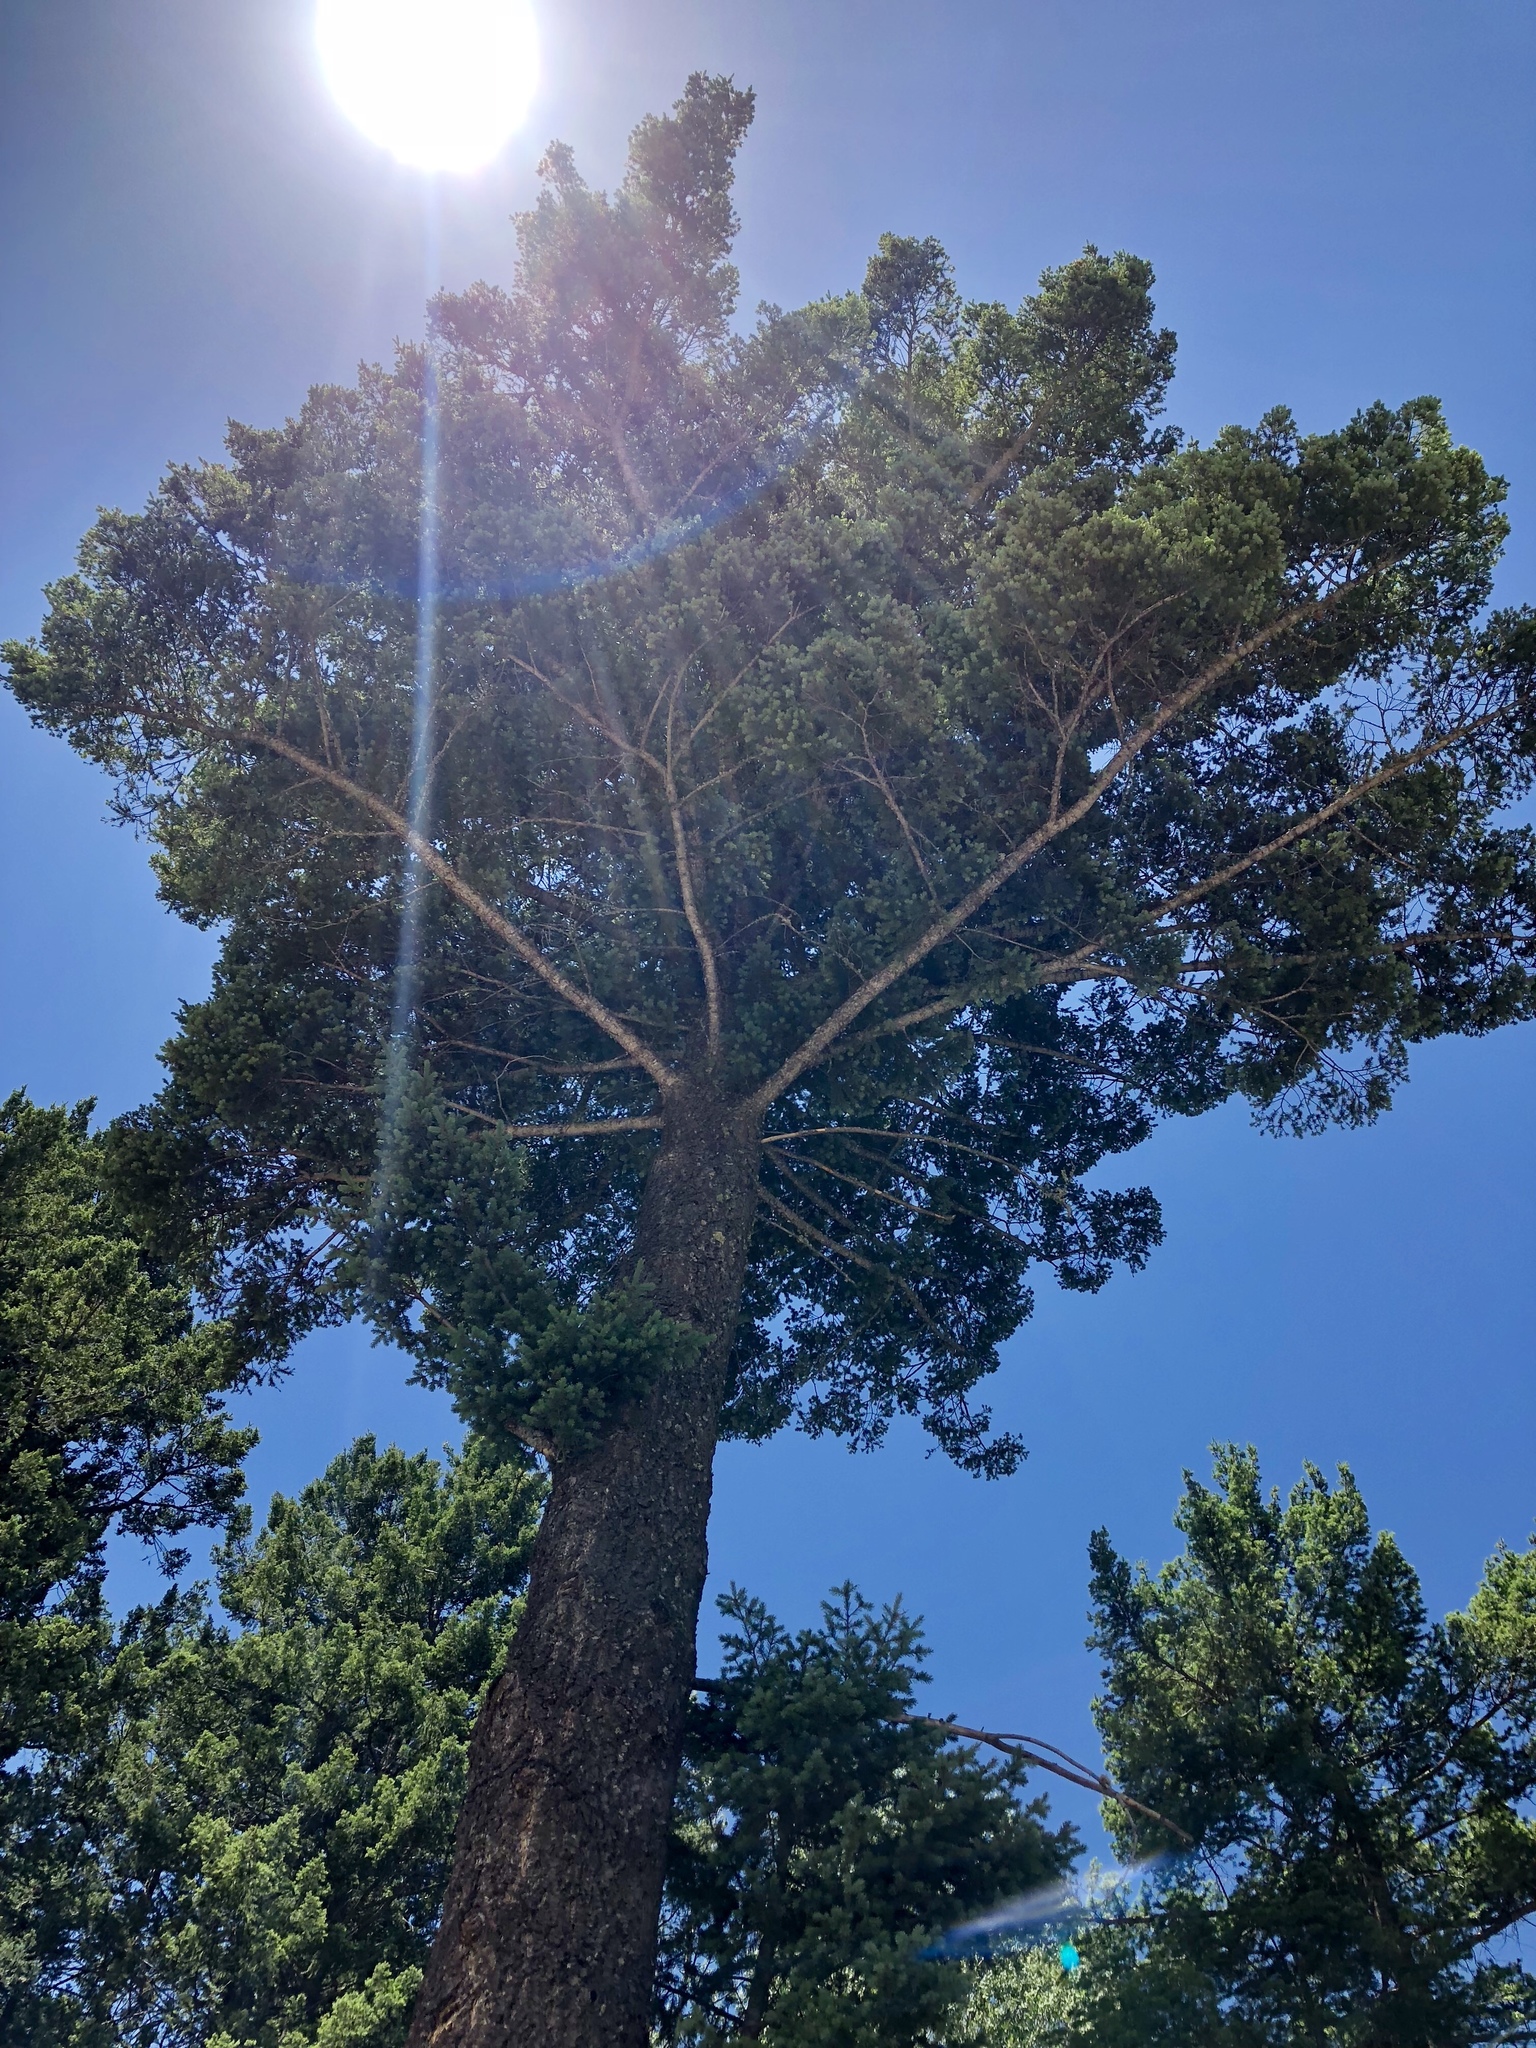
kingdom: Plantae
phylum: Tracheophyta
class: Pinopsida
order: Pinales
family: Pinaceae
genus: Pseudotsuga
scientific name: Pseudotsuga menziesii
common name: Douglas fir
